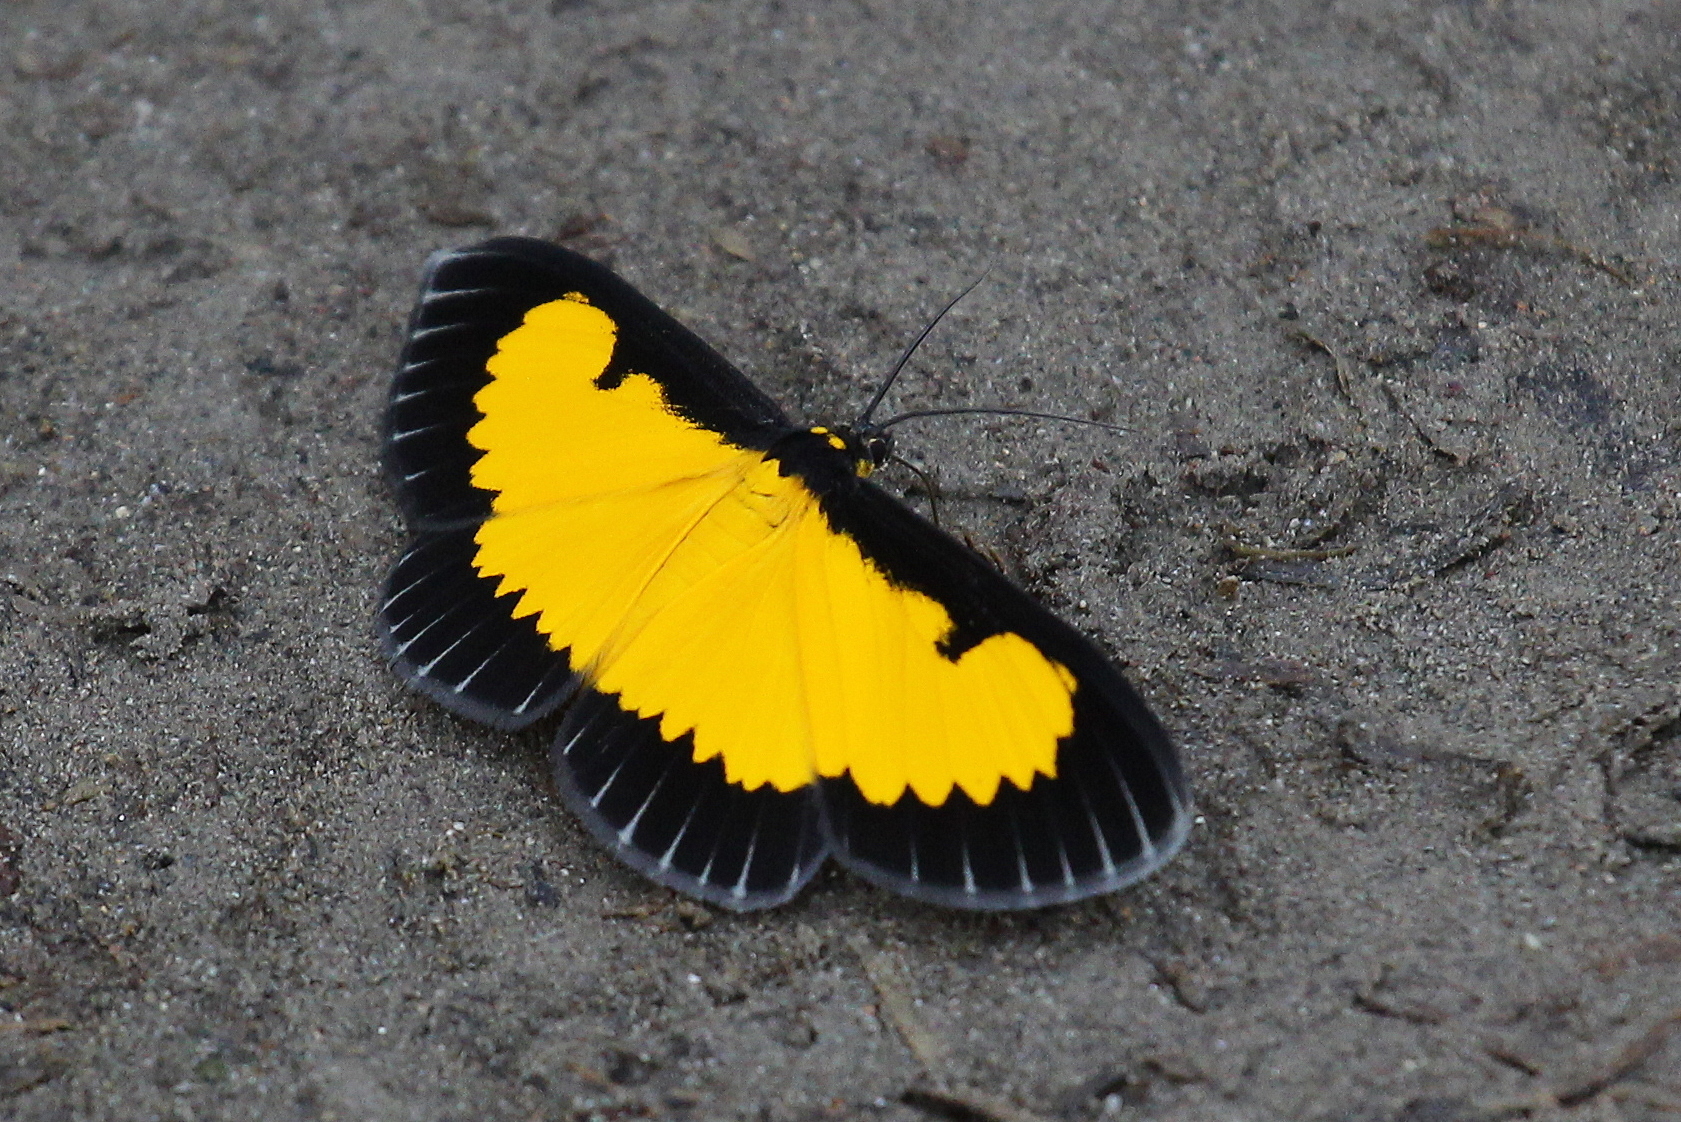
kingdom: Animalia
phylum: Arthropoda
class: Insecta
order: Lepidoptera
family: Geometridae
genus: Xanthyris
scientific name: Xanthyris flaveolata
